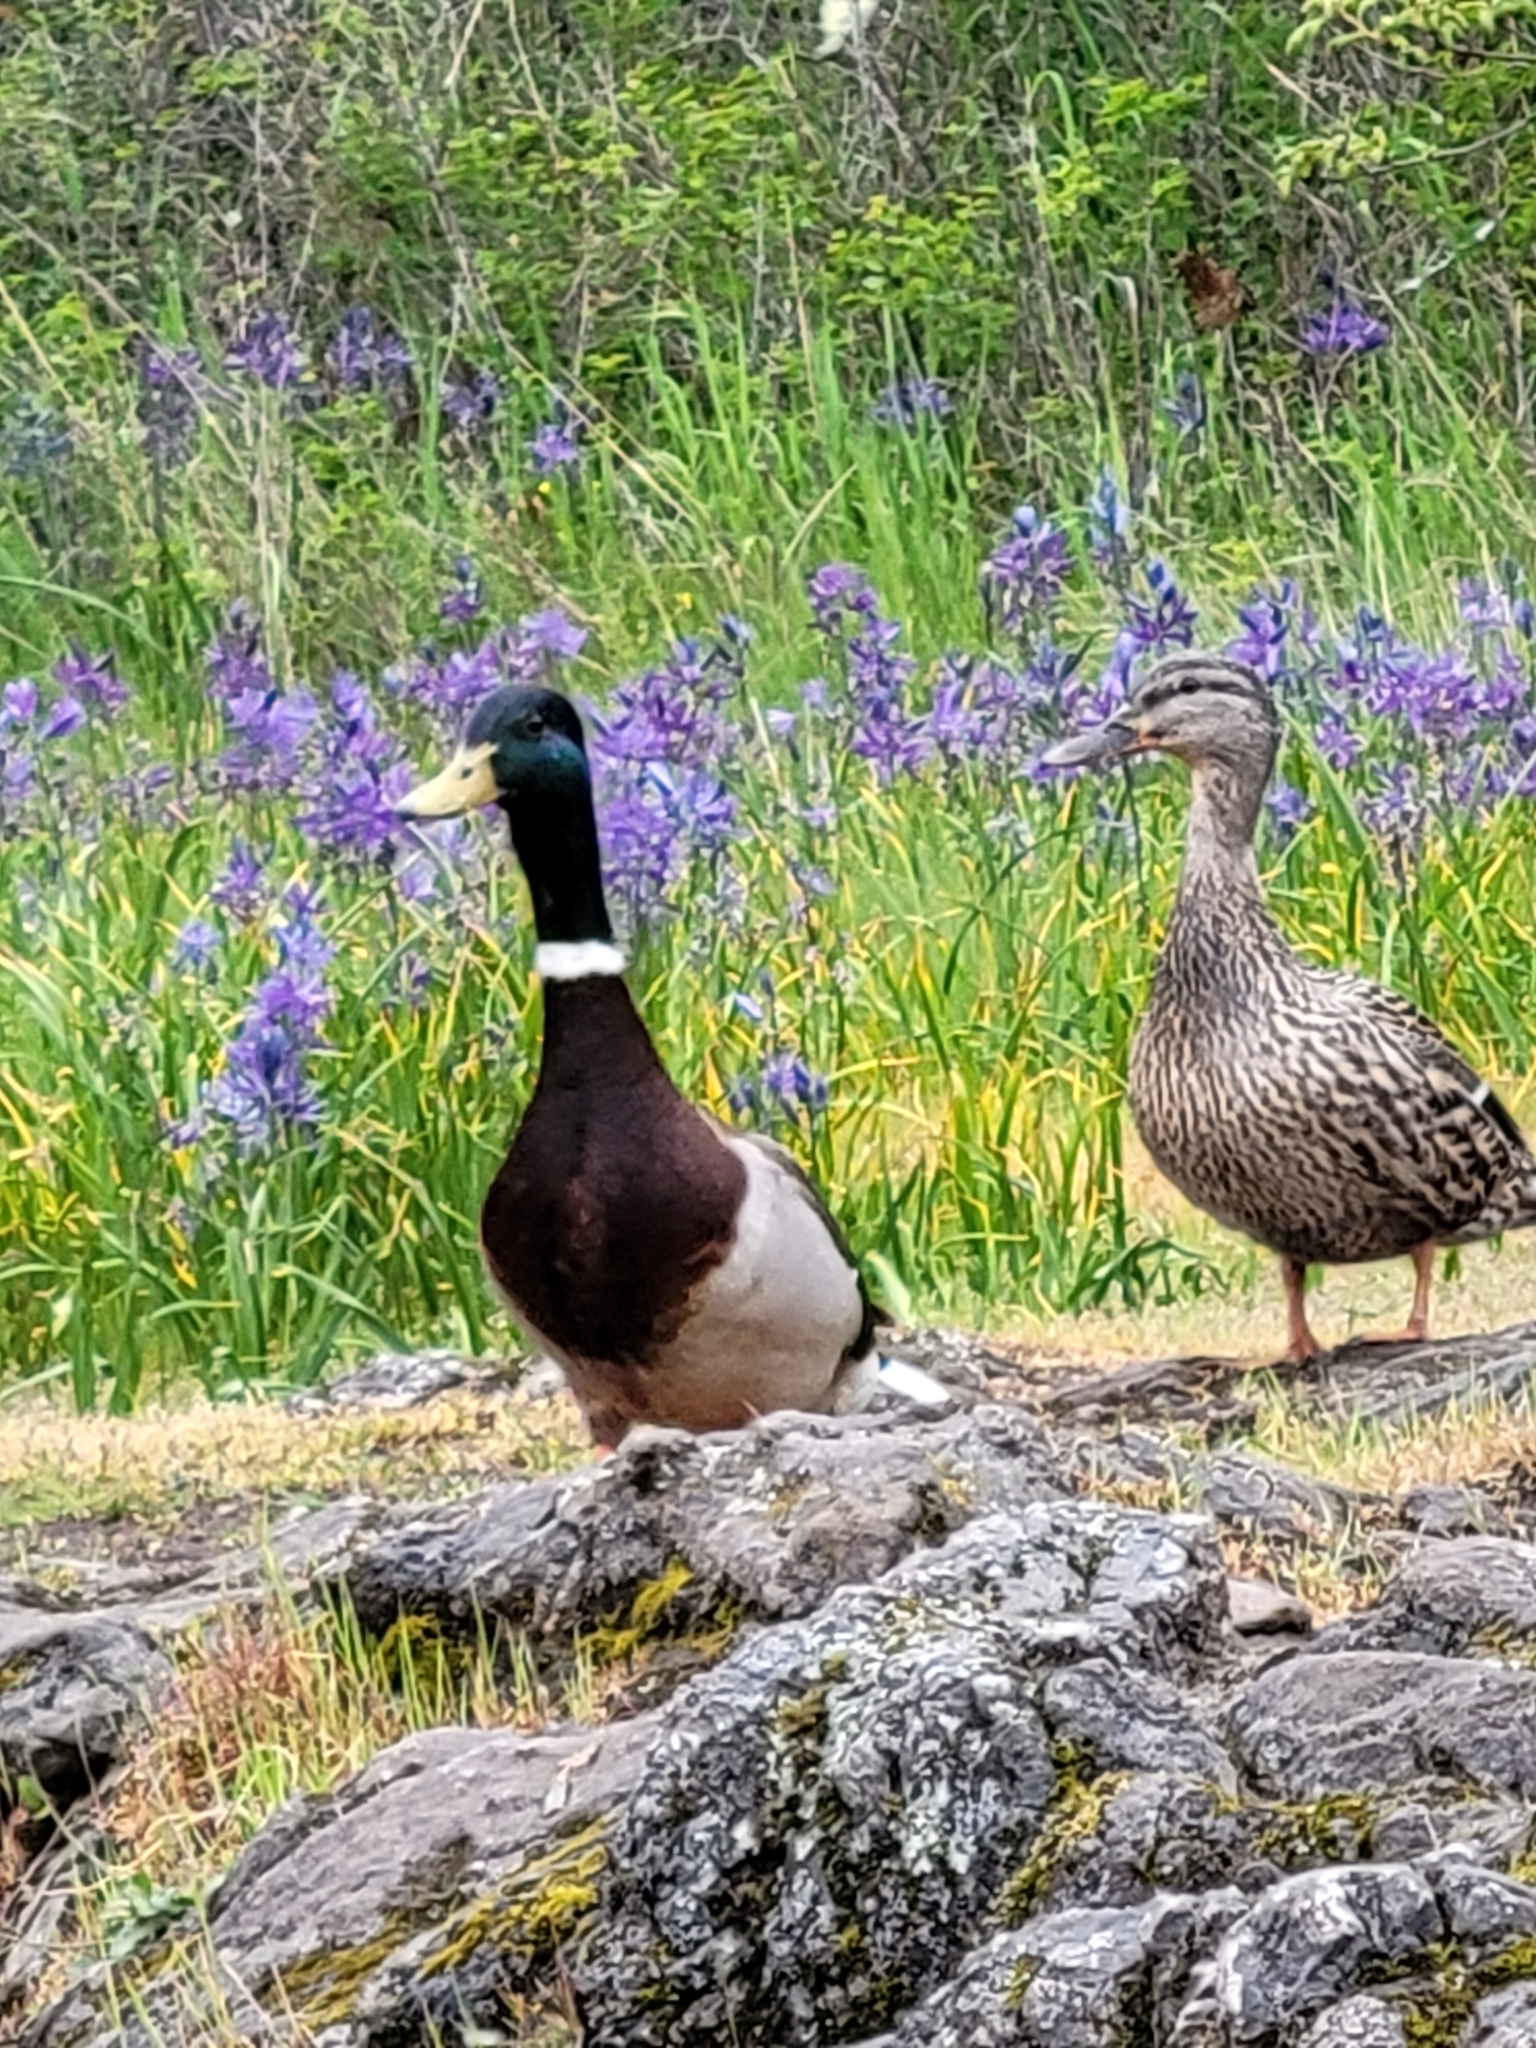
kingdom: Animalia
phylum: Chordata
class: Aves
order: Anseriformes
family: Anatidae
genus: Anas
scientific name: Anas platyrhynchos
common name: Mallard
